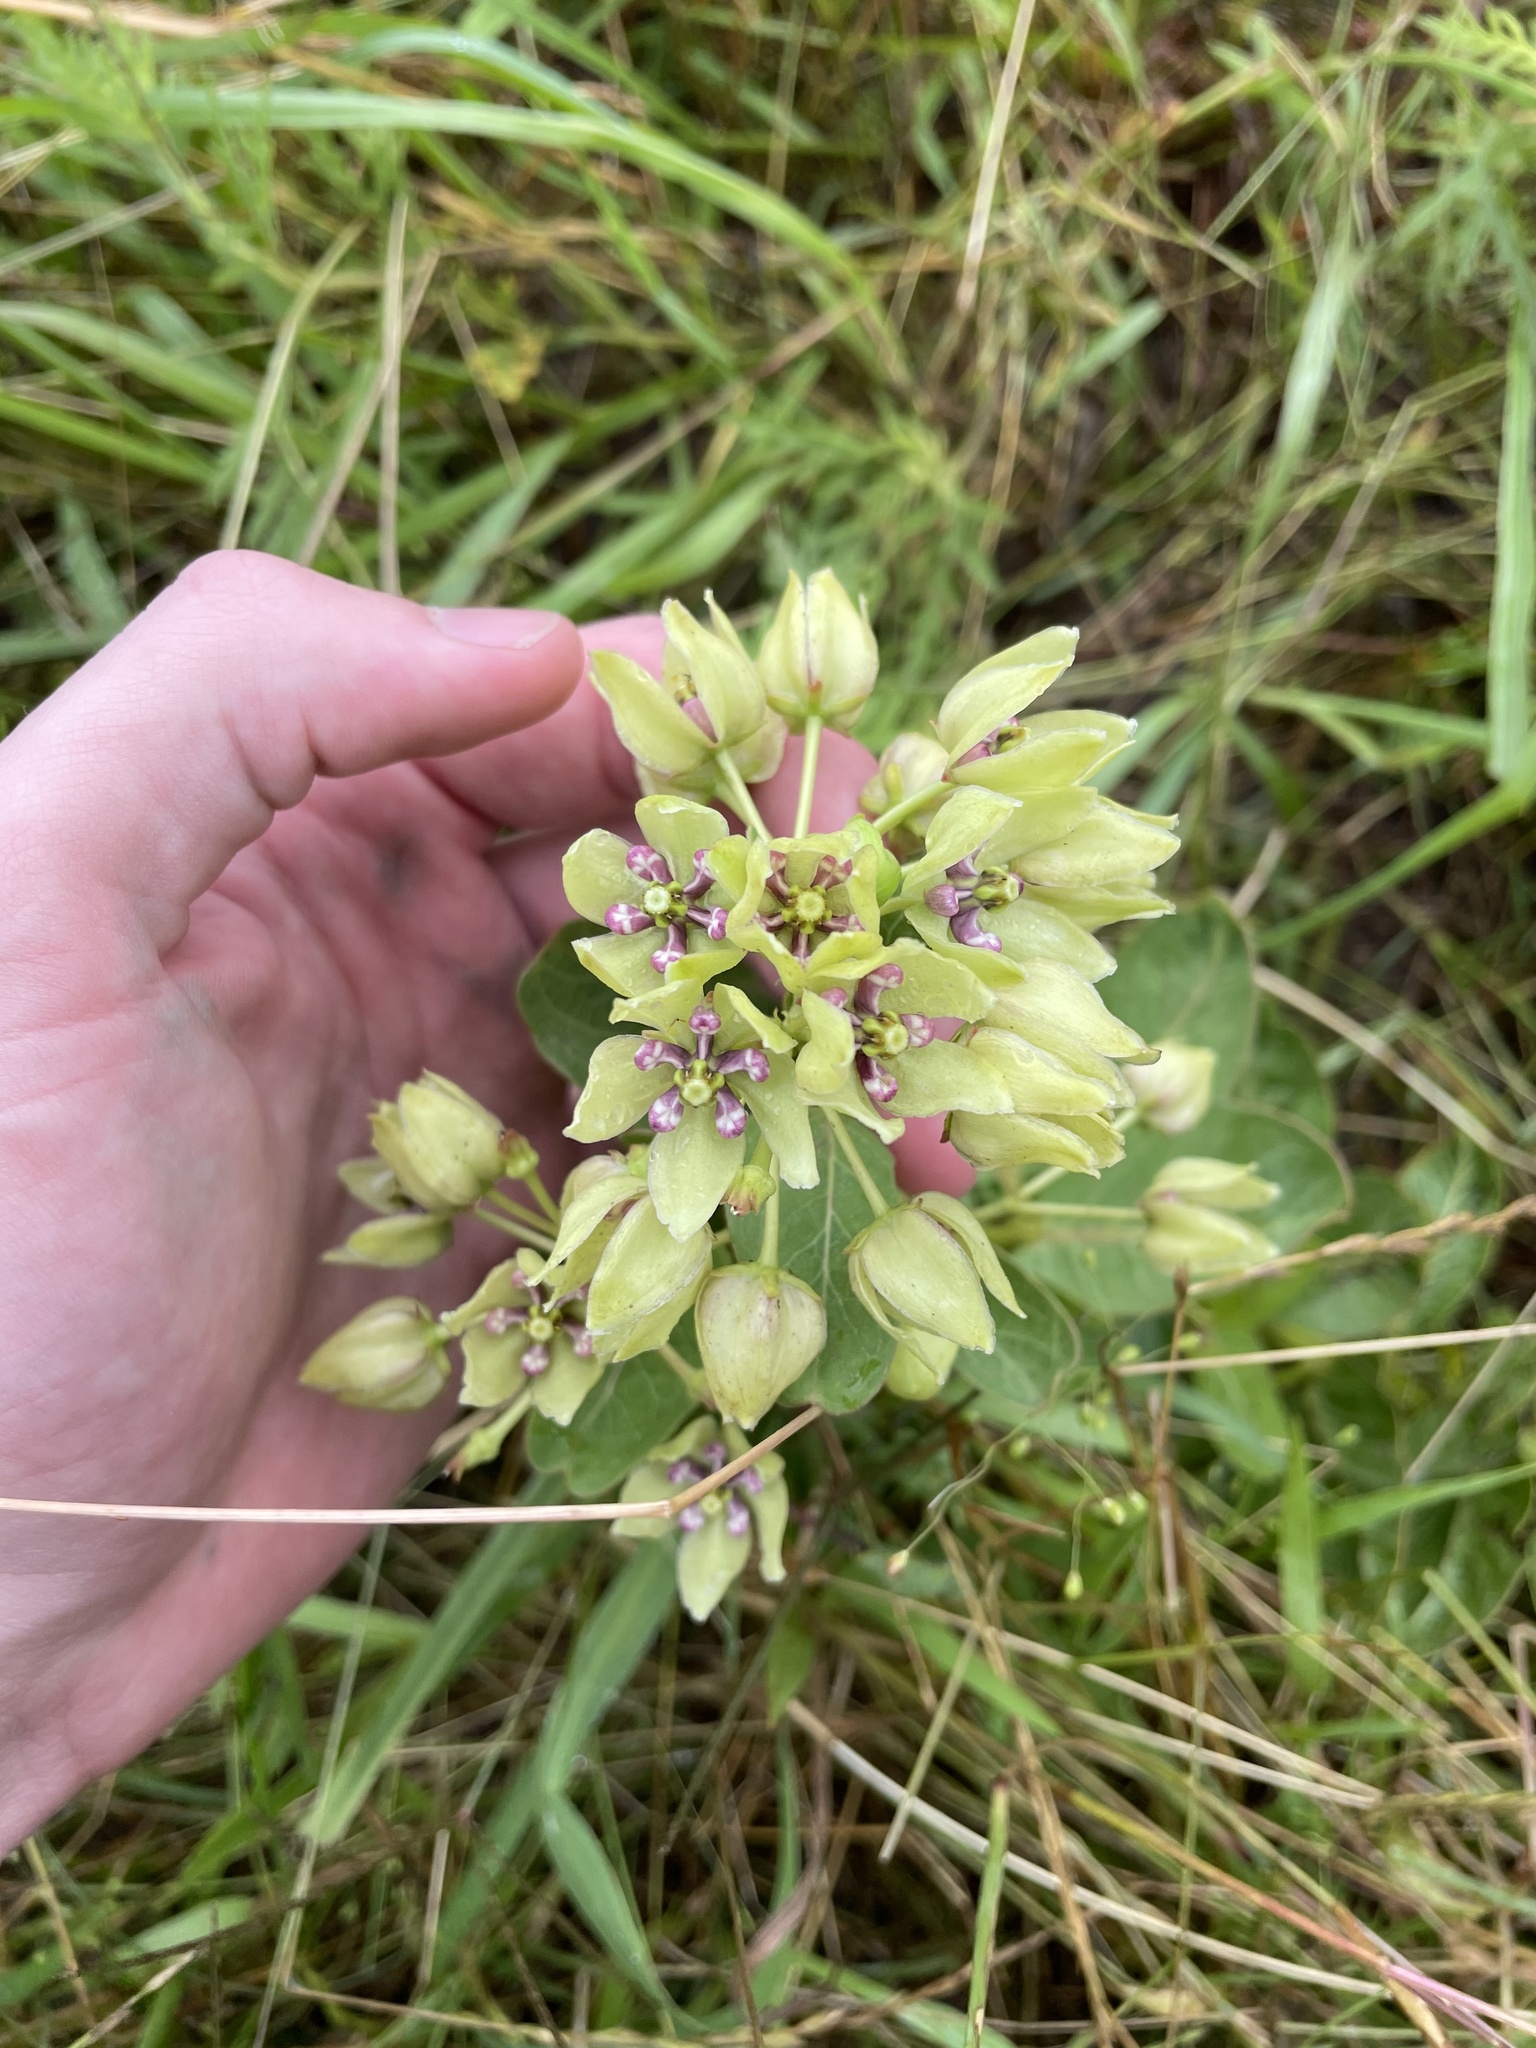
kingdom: Plantae
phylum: Tracheophyta
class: Magnoliopsida
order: Gentianales
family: Apocynaceae
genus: Asclepias
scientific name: Asclepias viridis
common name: Antelope-horns
